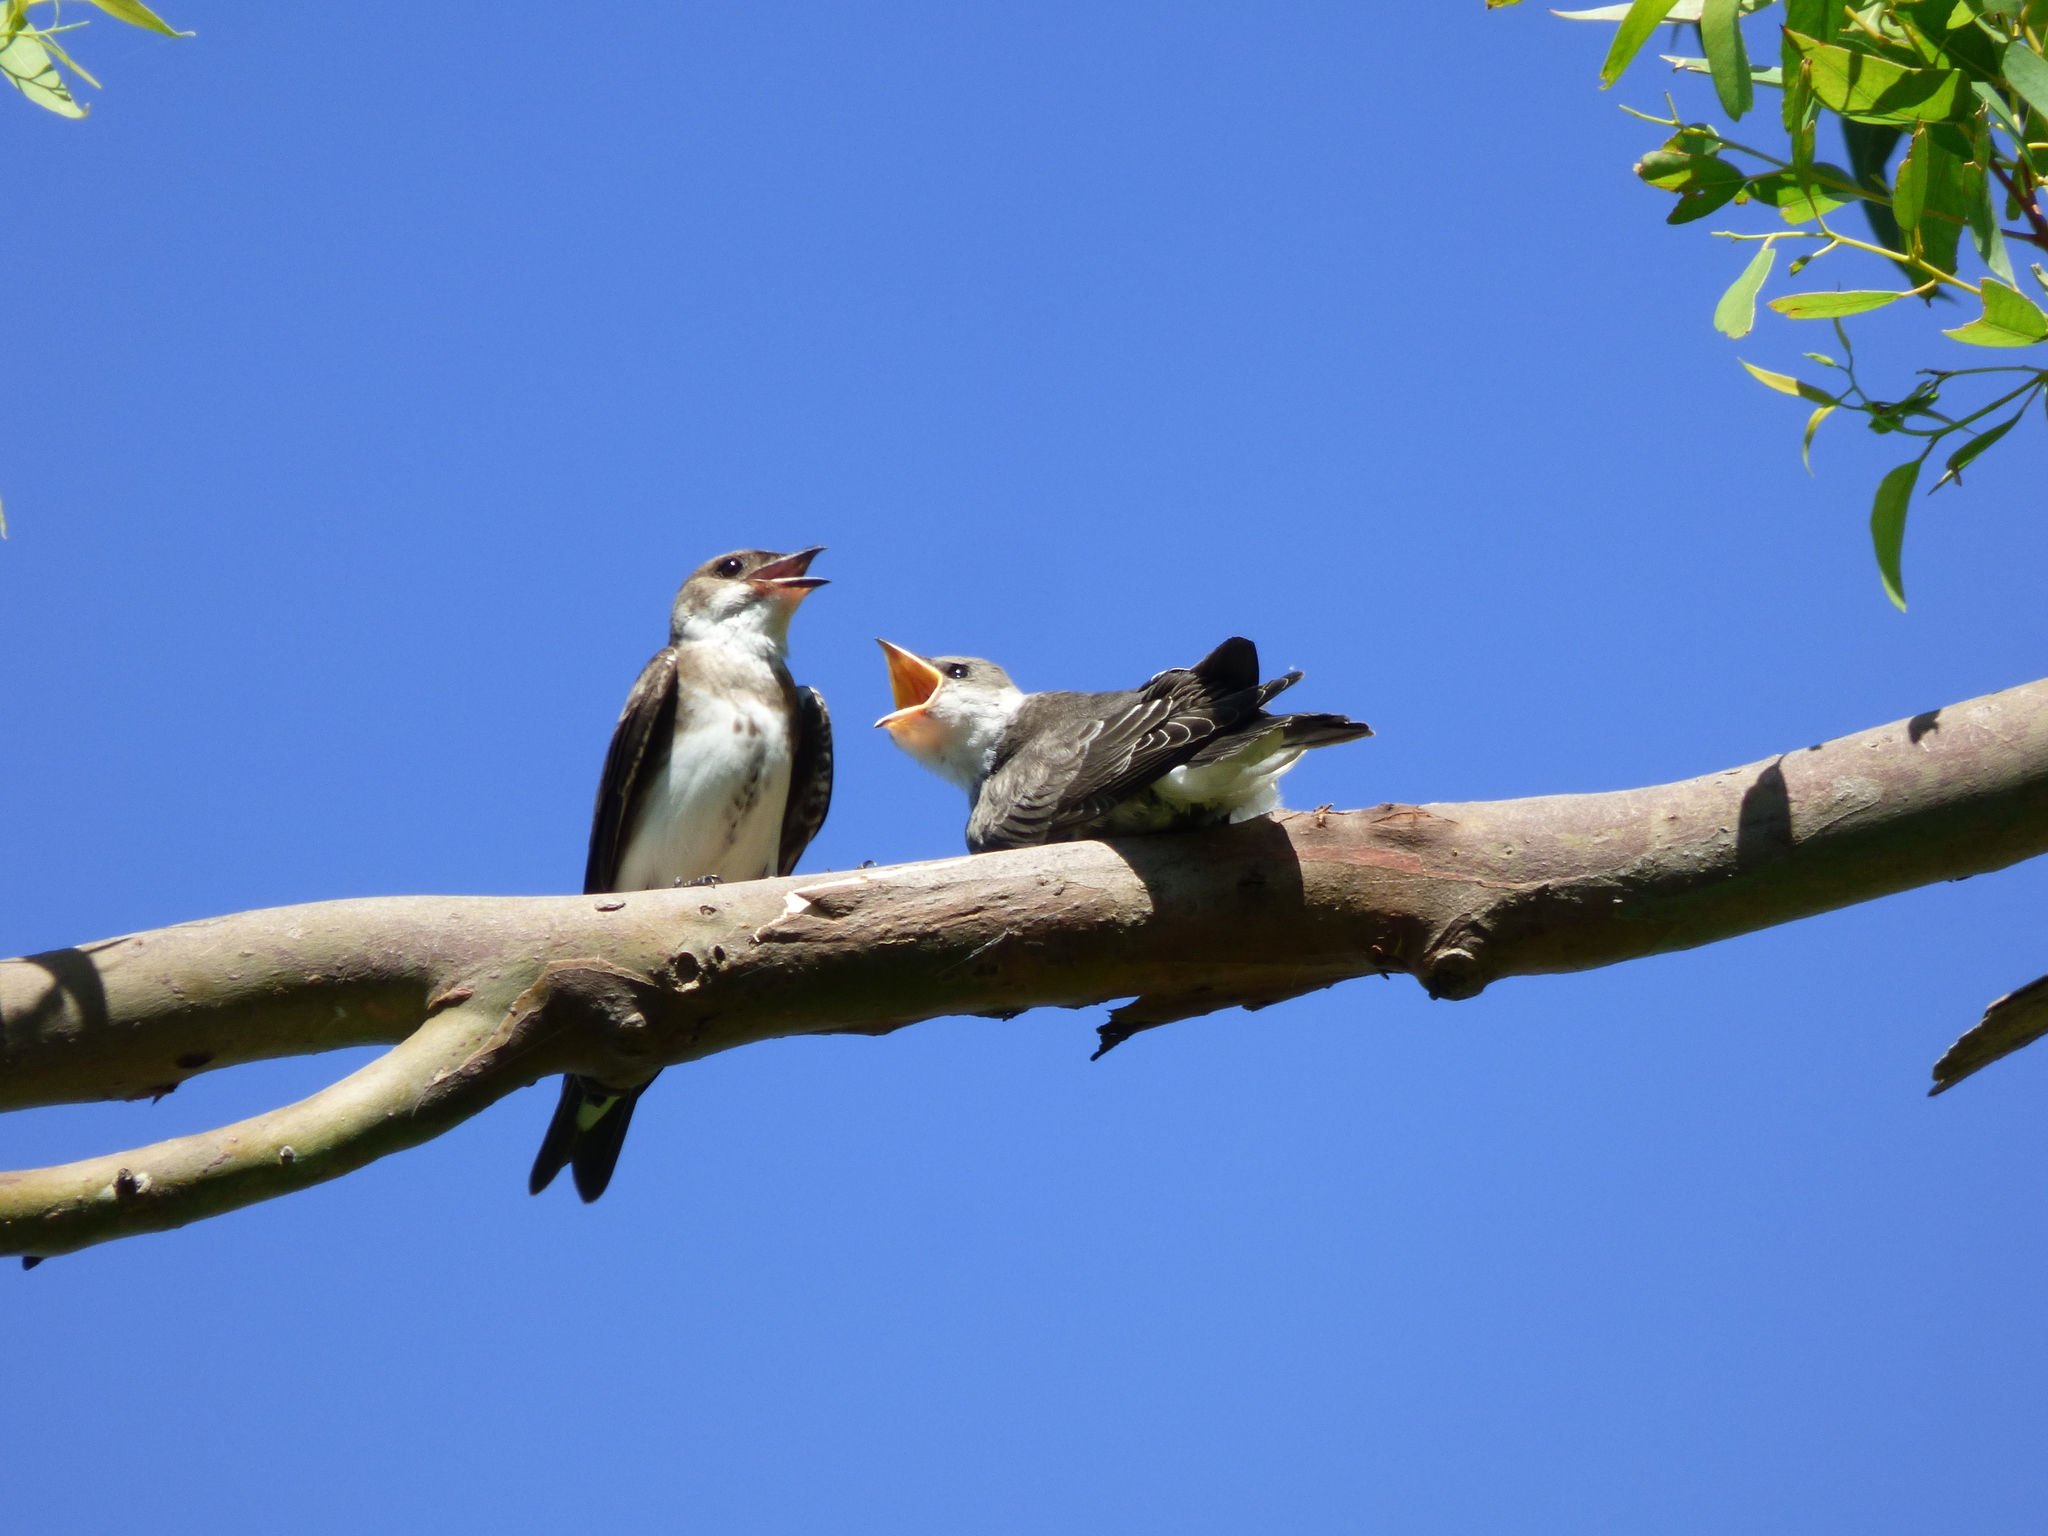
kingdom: Animalia
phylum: Chordata
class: Aves
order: Passeriformes
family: Hirundinidae
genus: Progne
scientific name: Progne tapera
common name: Brown-chested martin
